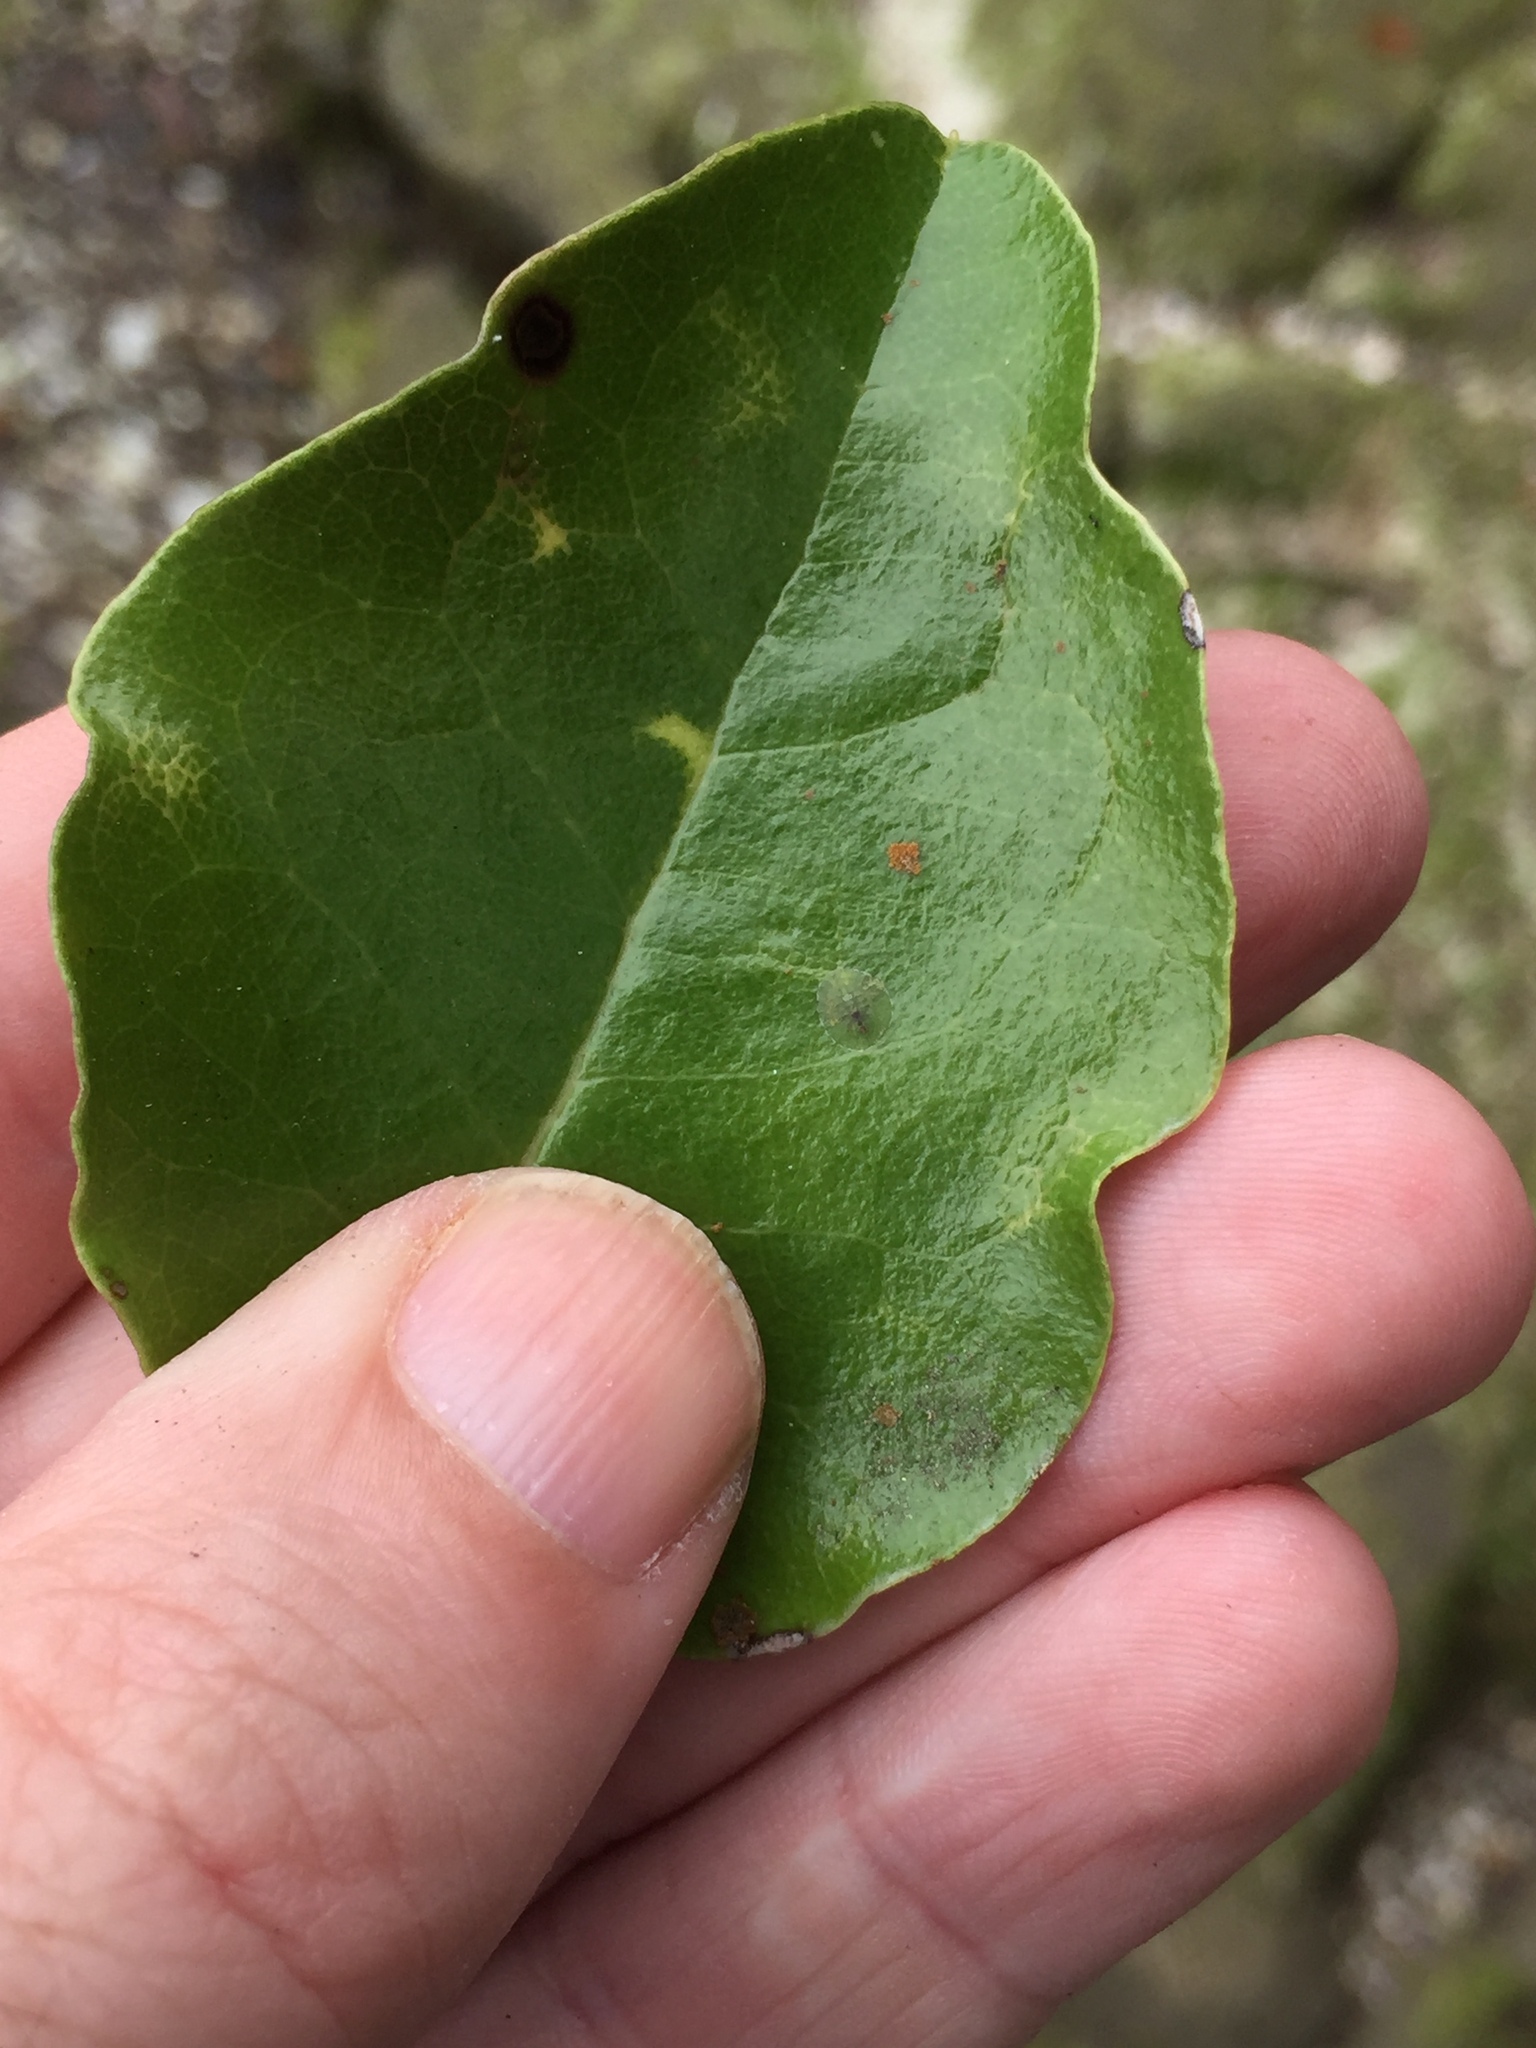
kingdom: Animalia
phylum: Arthropoda
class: Insecta
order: Hemiptera
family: Coccidae
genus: Aphenochiton
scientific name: Aphenochiton subtilis
